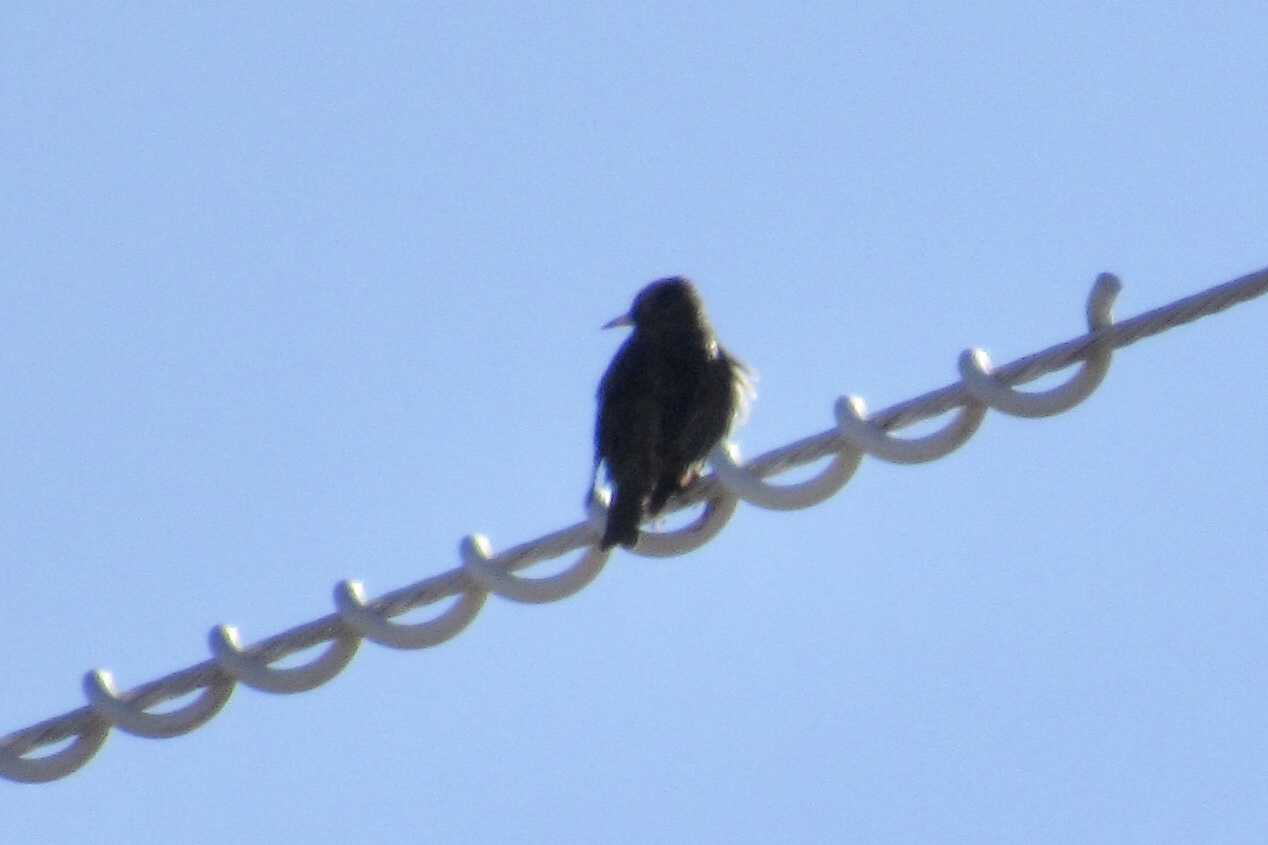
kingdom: Animalia
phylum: Chordata
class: Aves
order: Passeriformes
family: Sturnidae
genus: Sturnus
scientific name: Sturnus vulgaris
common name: Common starling
